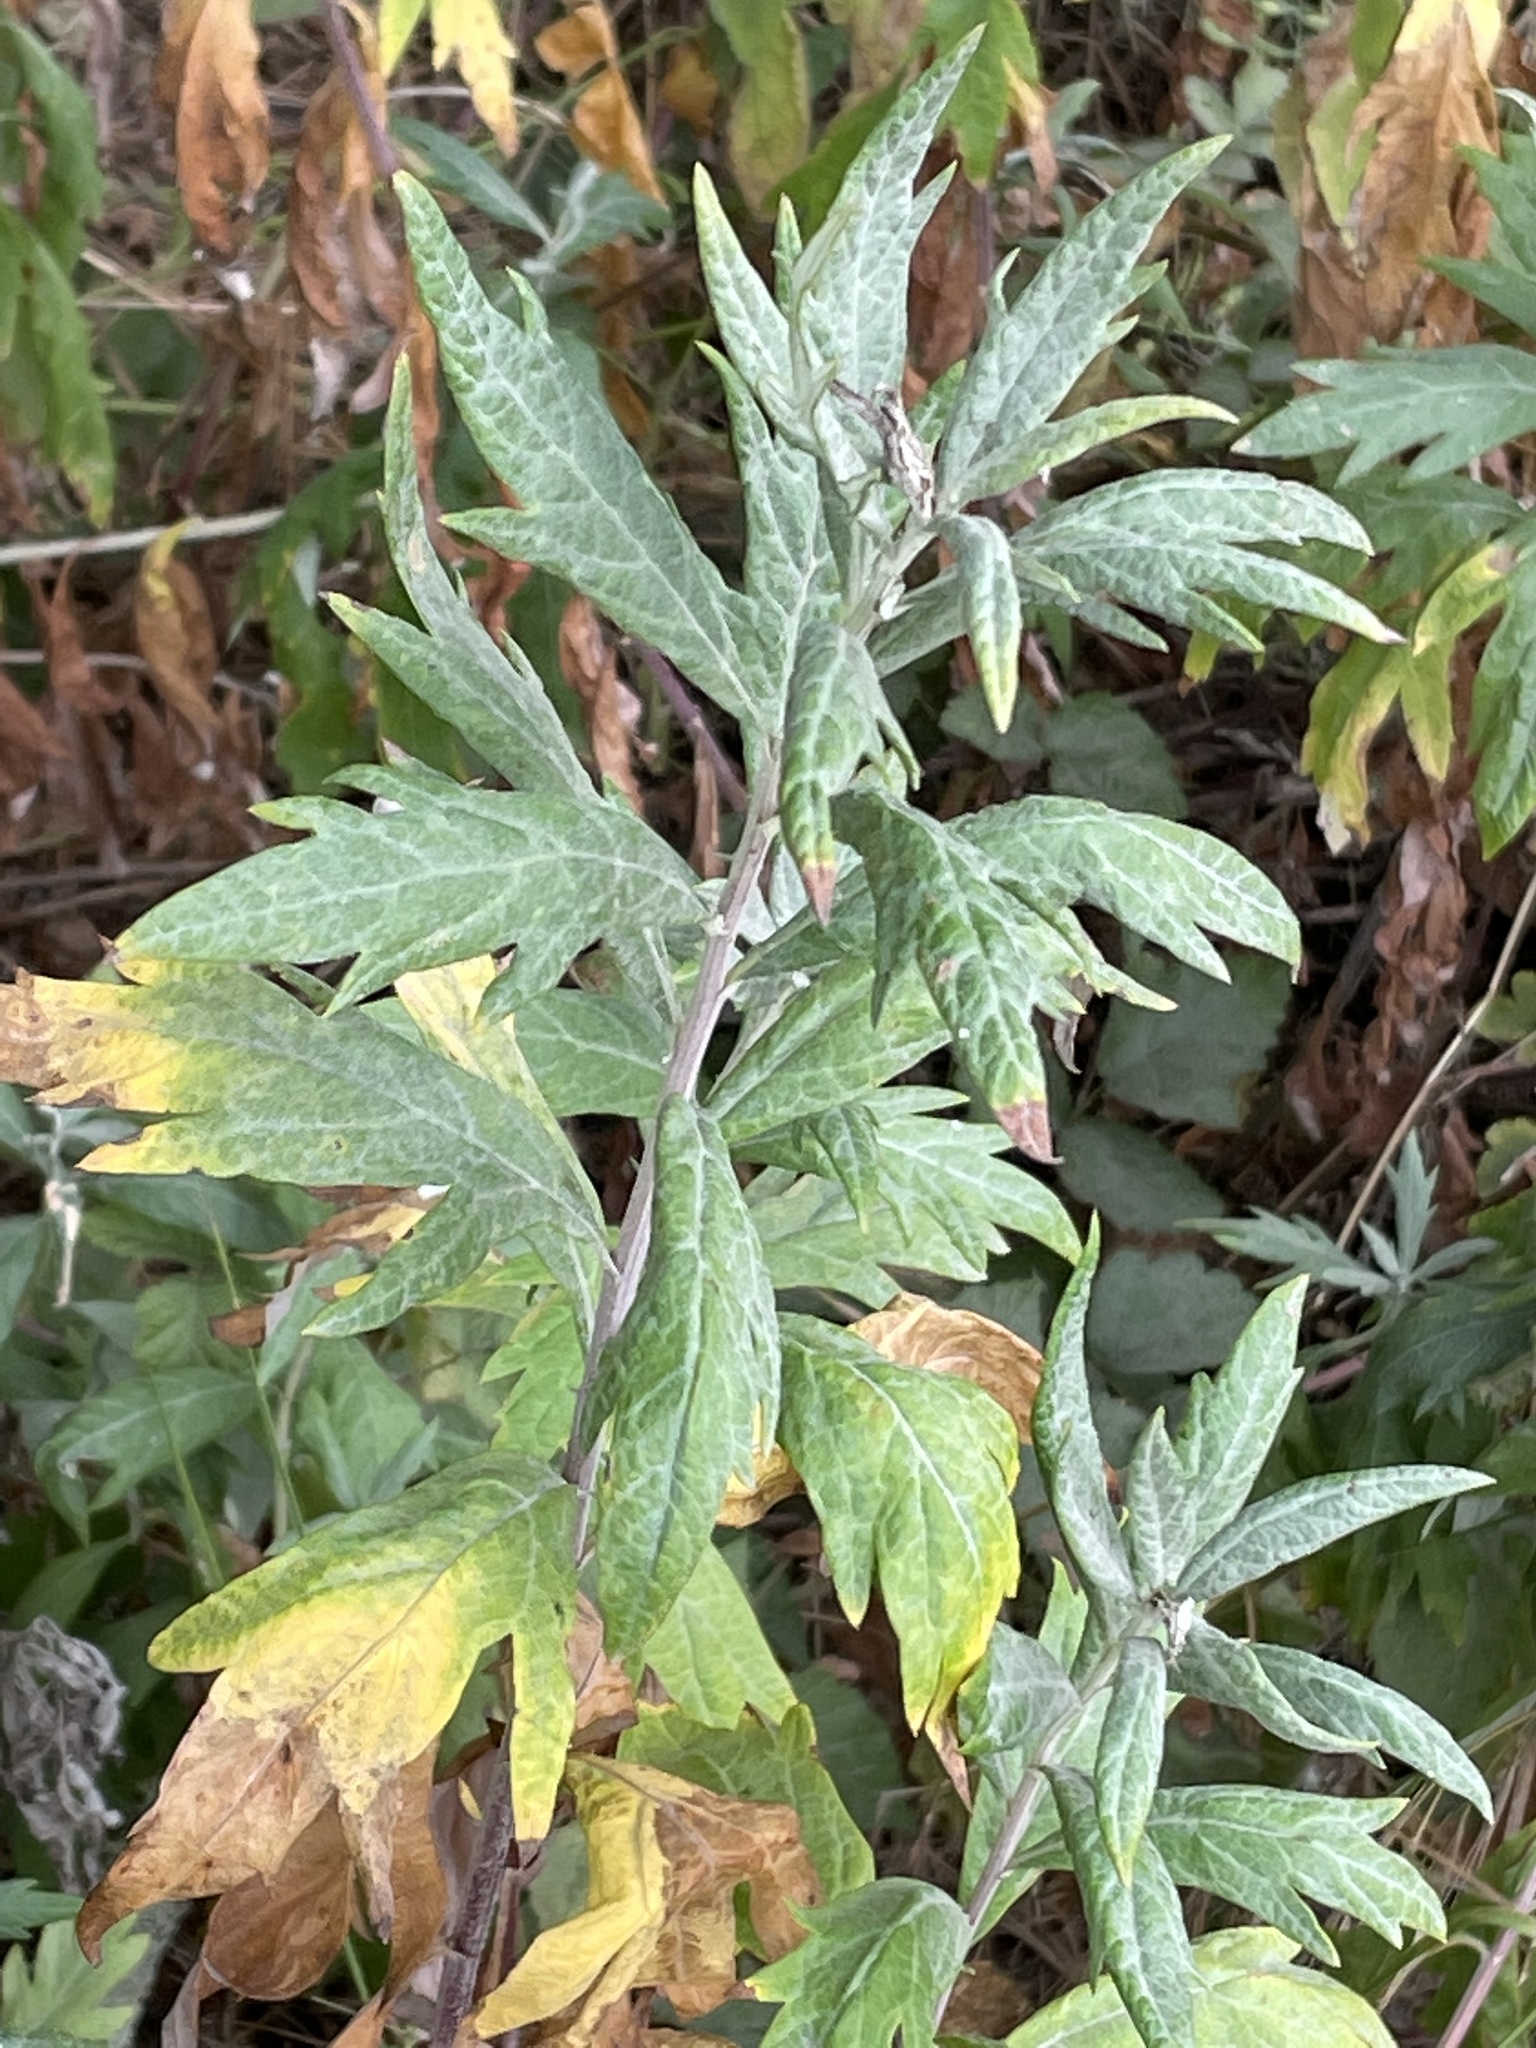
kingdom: Plantae
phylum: Tracheophyta
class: Magnoliopsida
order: Asterales
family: Asteraceae
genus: Artemisia
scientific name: Artemisia douglasiana
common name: Northwest mugwort
